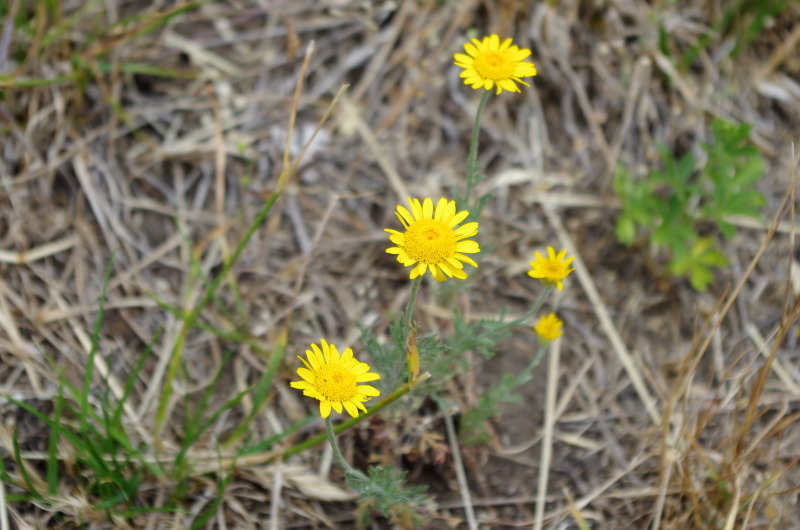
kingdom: Plantae
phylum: Tracheophyta
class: Magnoliopsida
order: Asterales
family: Asteraceae
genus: Cota
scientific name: Cota tinctoria
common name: Golden chamomile
